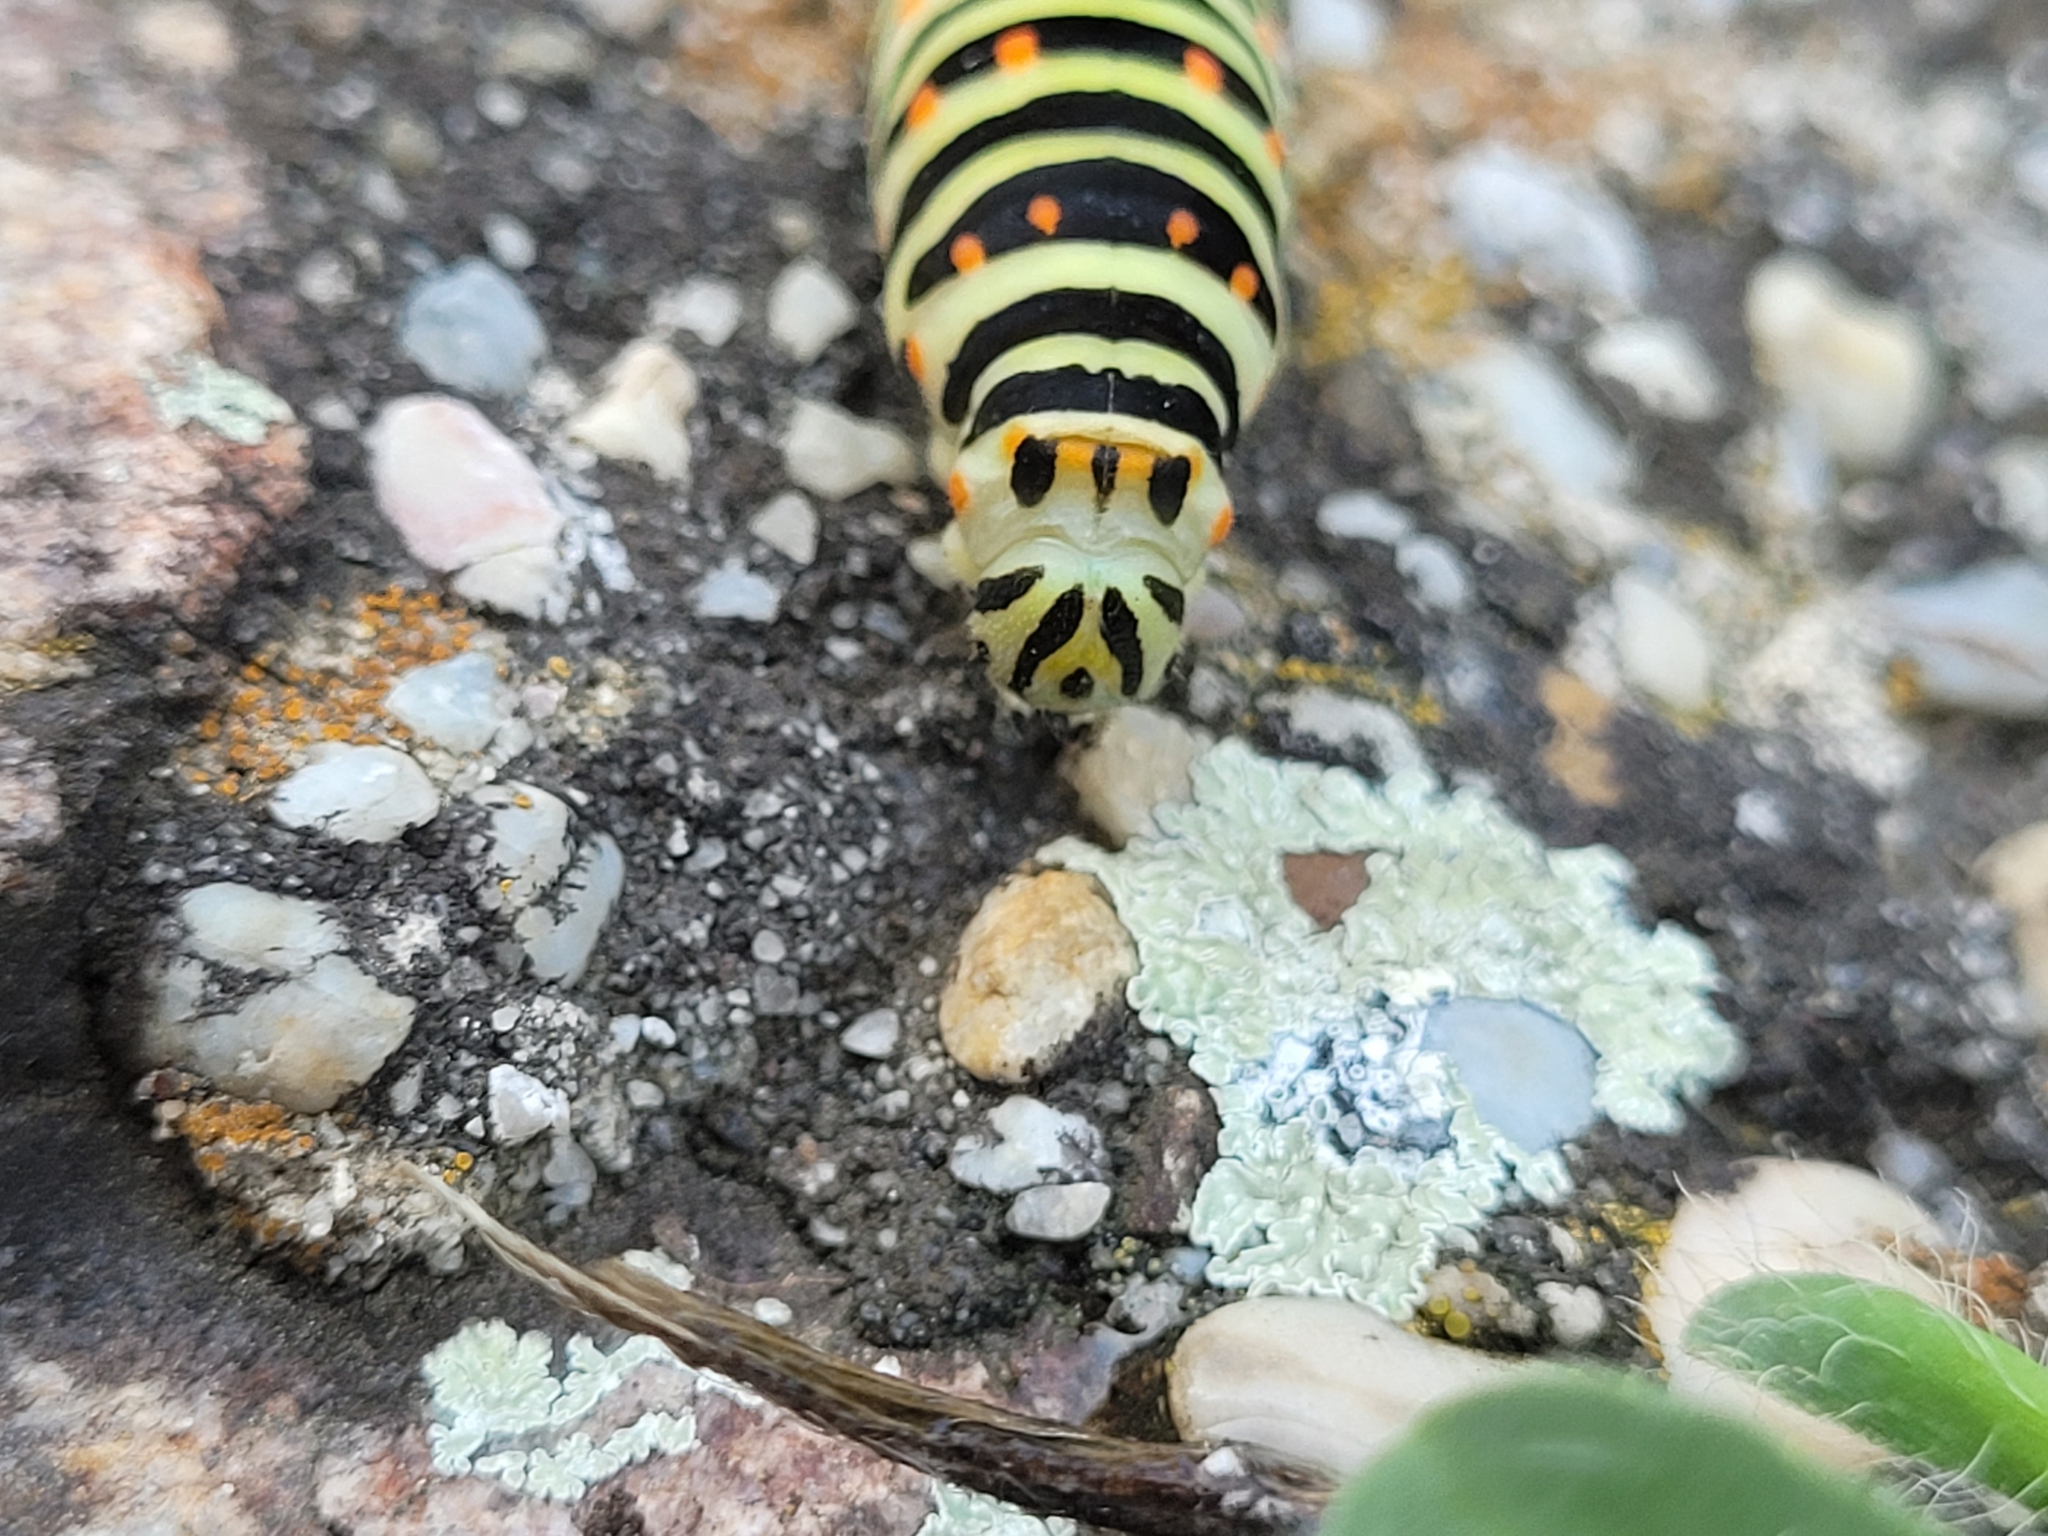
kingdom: Animalia
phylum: Arthropoda
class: Insecta
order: Lepidoptera
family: Papilionidae
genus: Papilio
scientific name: Papilio machaon
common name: Swallowtail
